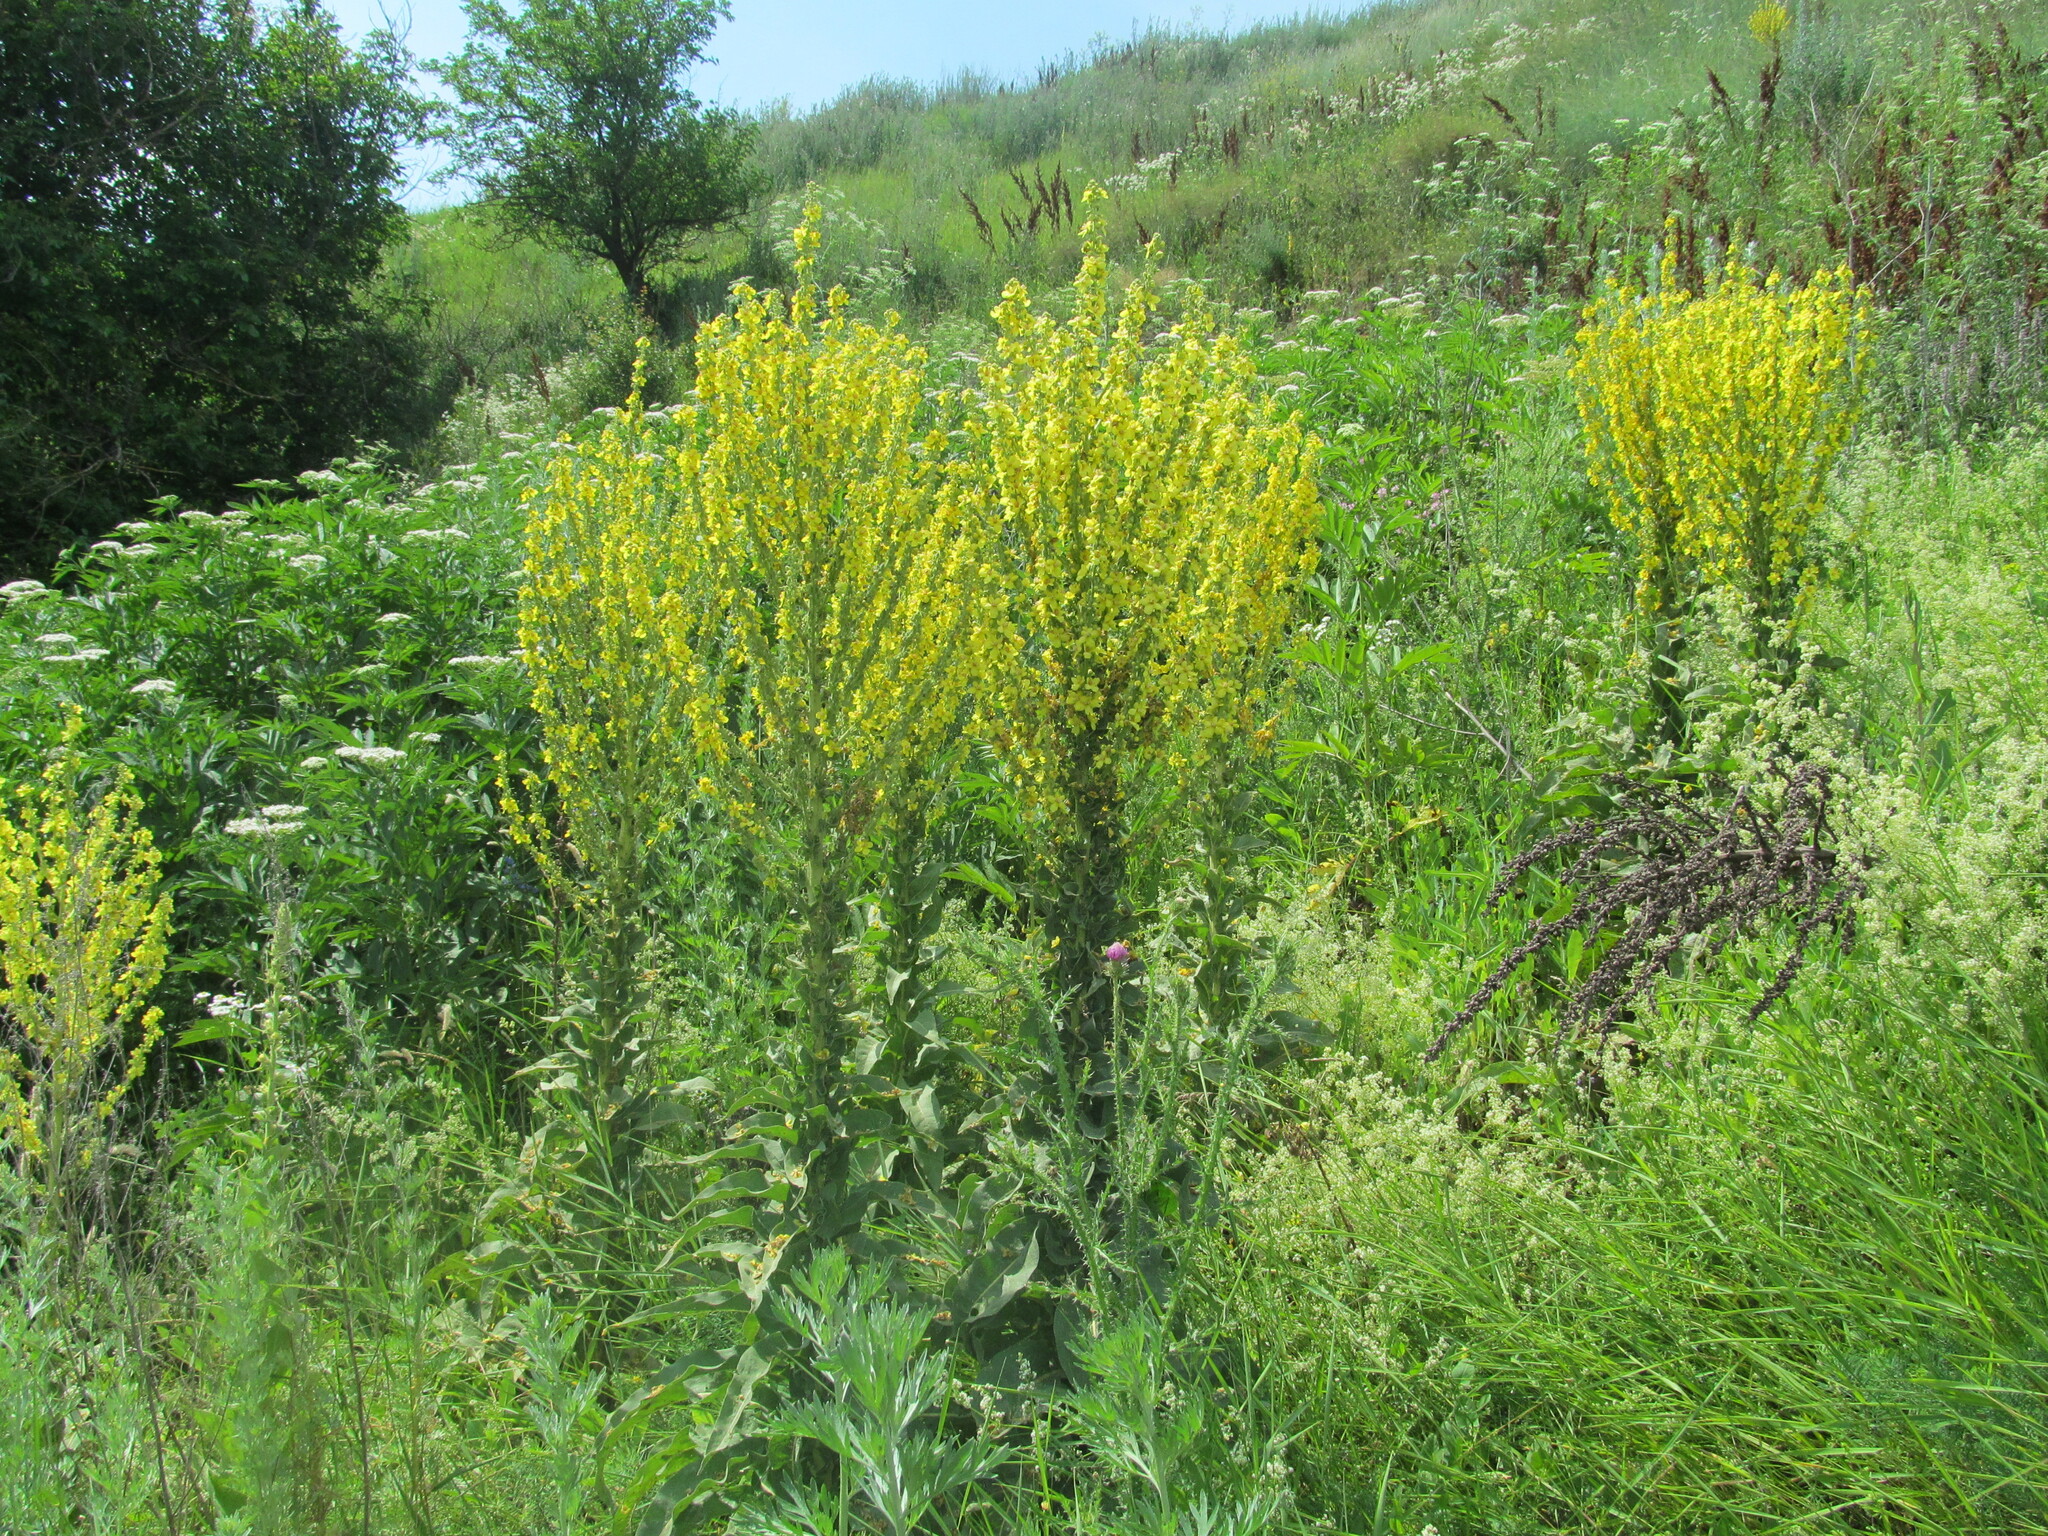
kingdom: Plantae
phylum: Tracheophyta
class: Magnoliopsida
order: Lamiales
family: Scrophulariaceae
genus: Verbascum
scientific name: Verbascum speciosum
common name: Hungarian mullein
